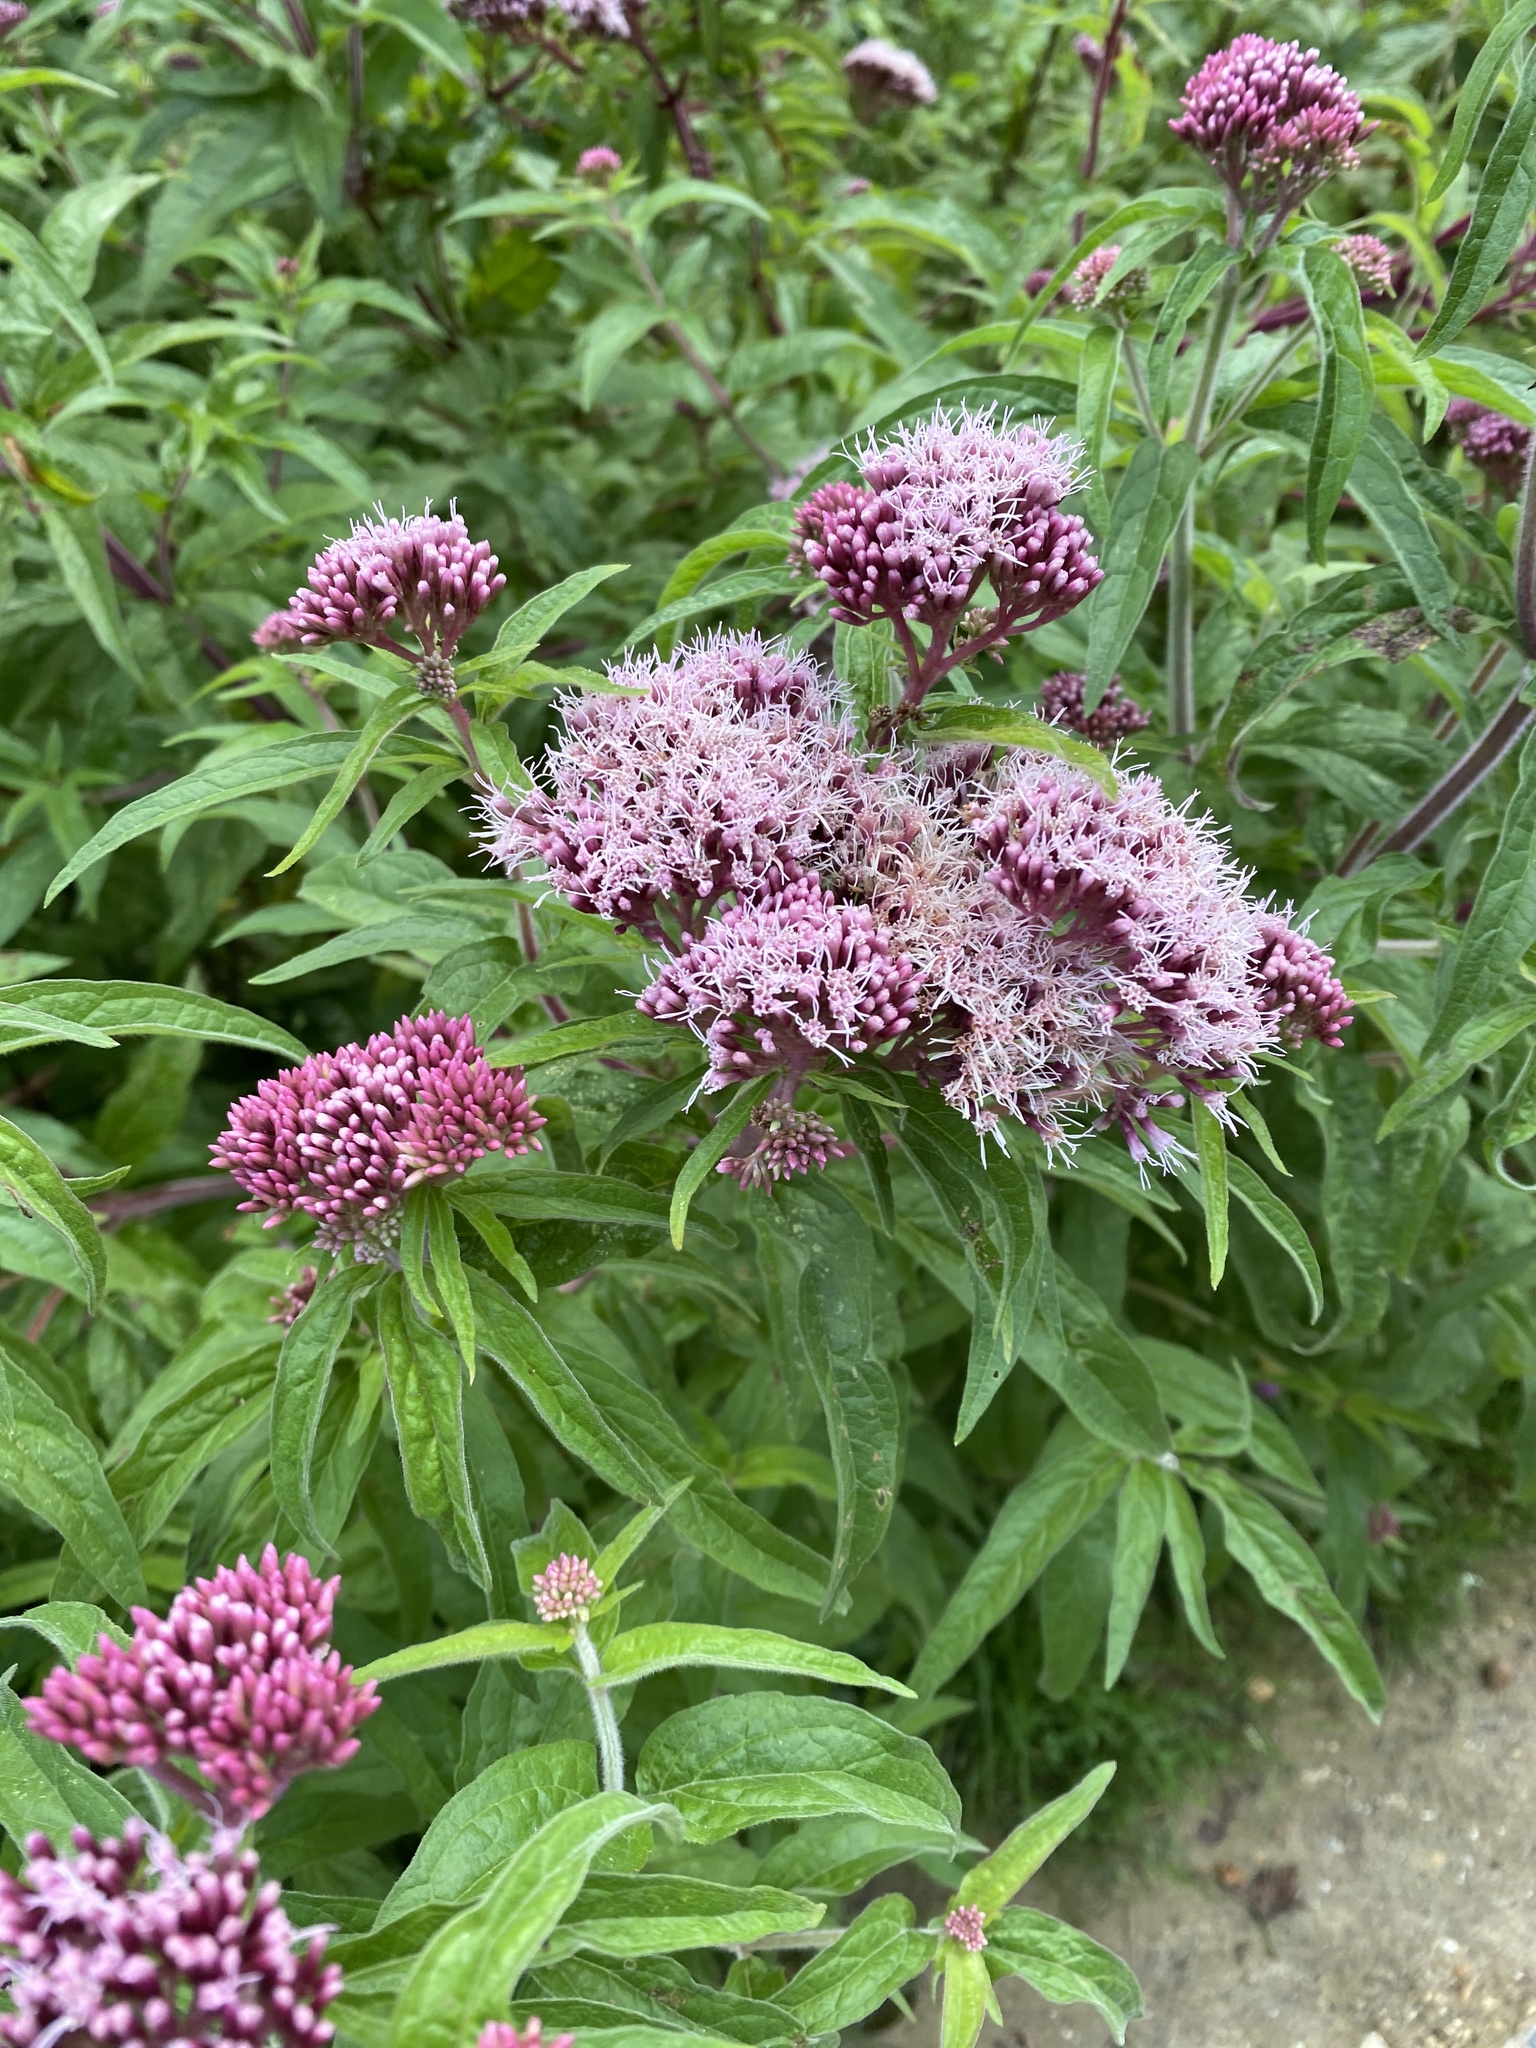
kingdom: Plantae
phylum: Tracheophyta
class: Magnoliopsida
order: Asterales
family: Asteraceae
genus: Eupatorium
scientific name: Eupatorium cannabinum
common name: Hemp-agrimony
